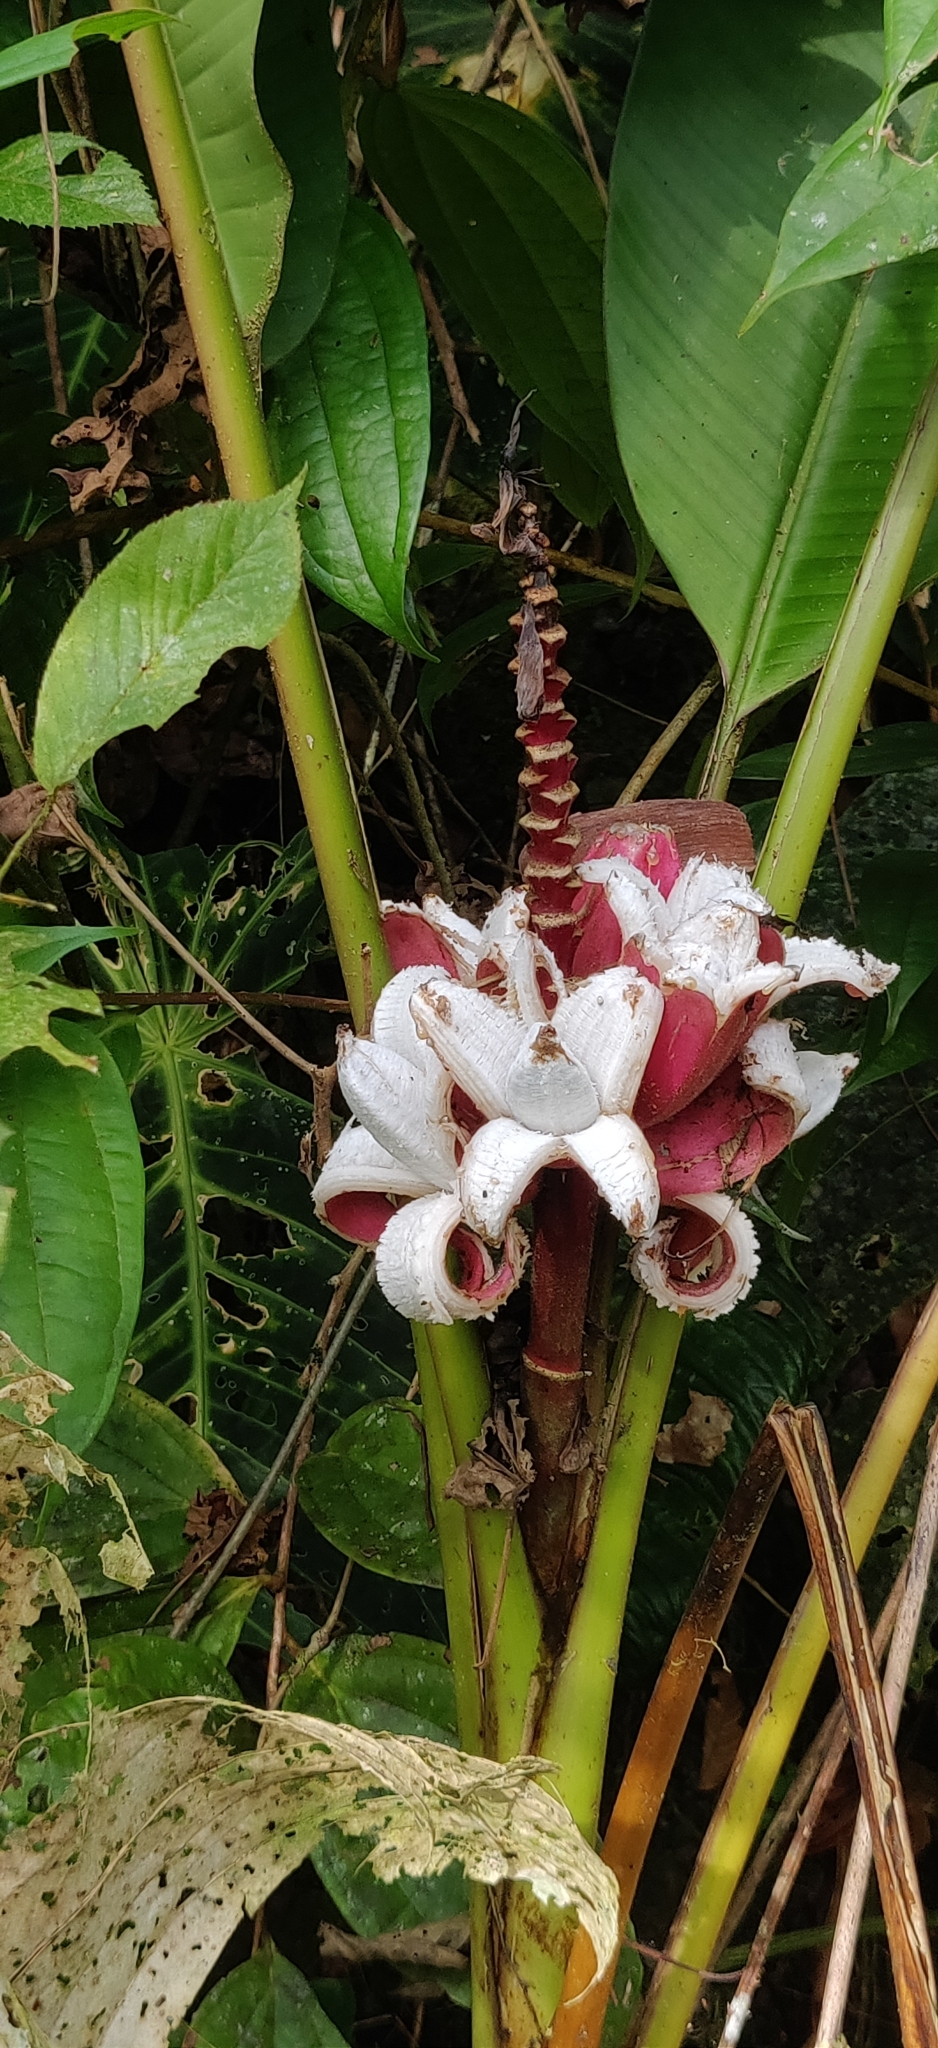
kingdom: Plantae
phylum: Tracheophyta
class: Liliopsida
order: Zingiberales
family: Musaceae
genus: Musa
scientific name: Musa velutina
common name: Pink velvet banana
